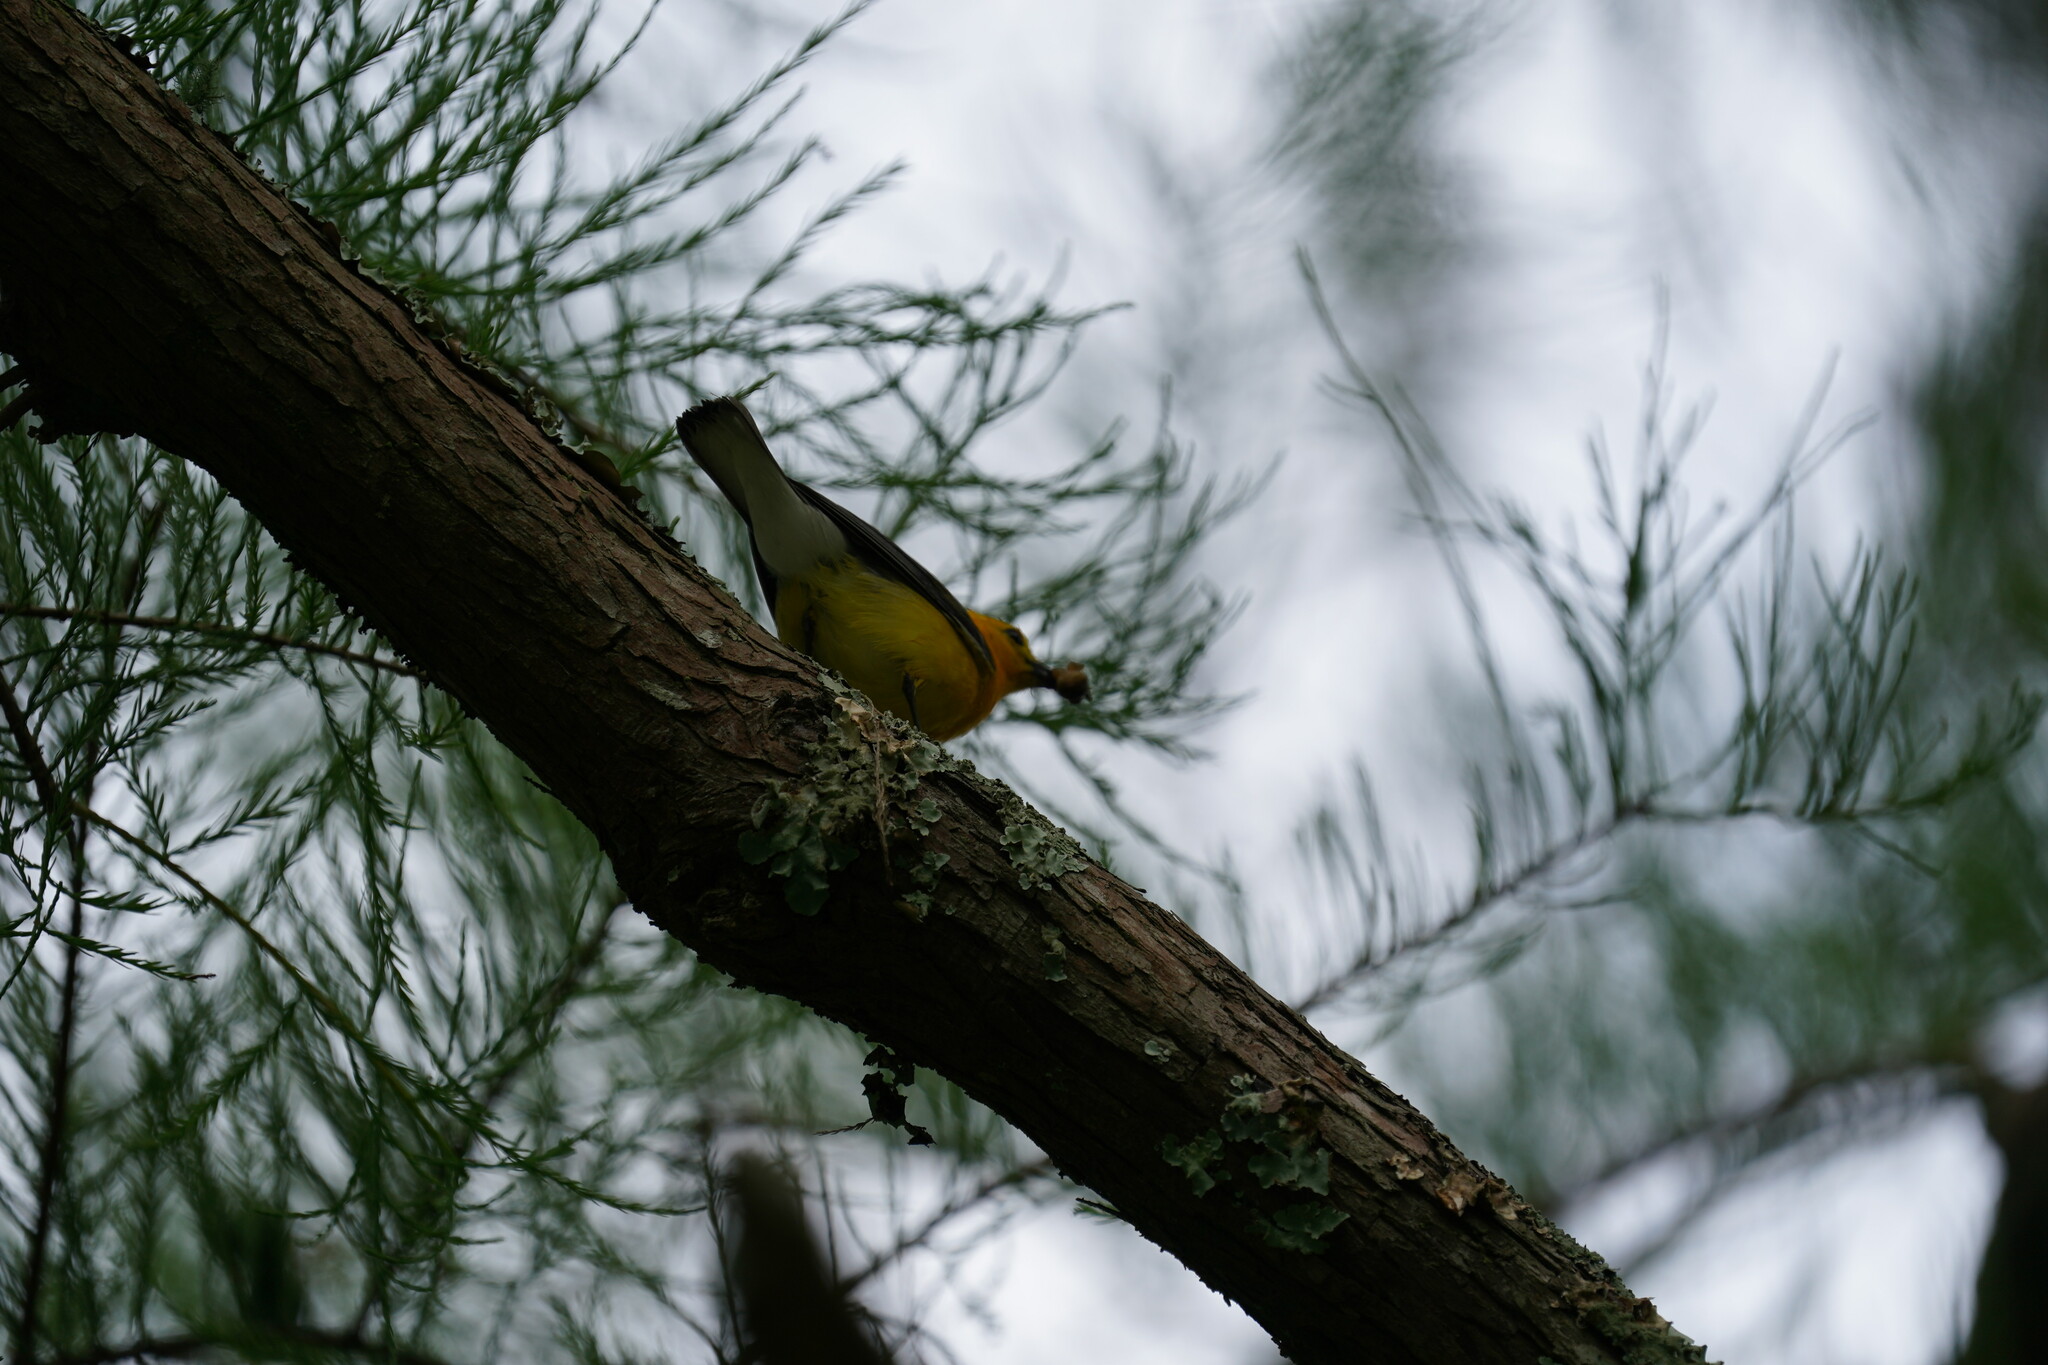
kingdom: Animalia
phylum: Chordata
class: Aves
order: Passeriformes
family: Parulidae
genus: Protonotaria
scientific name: Protonotaria citrea
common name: Prothonotary warbler
